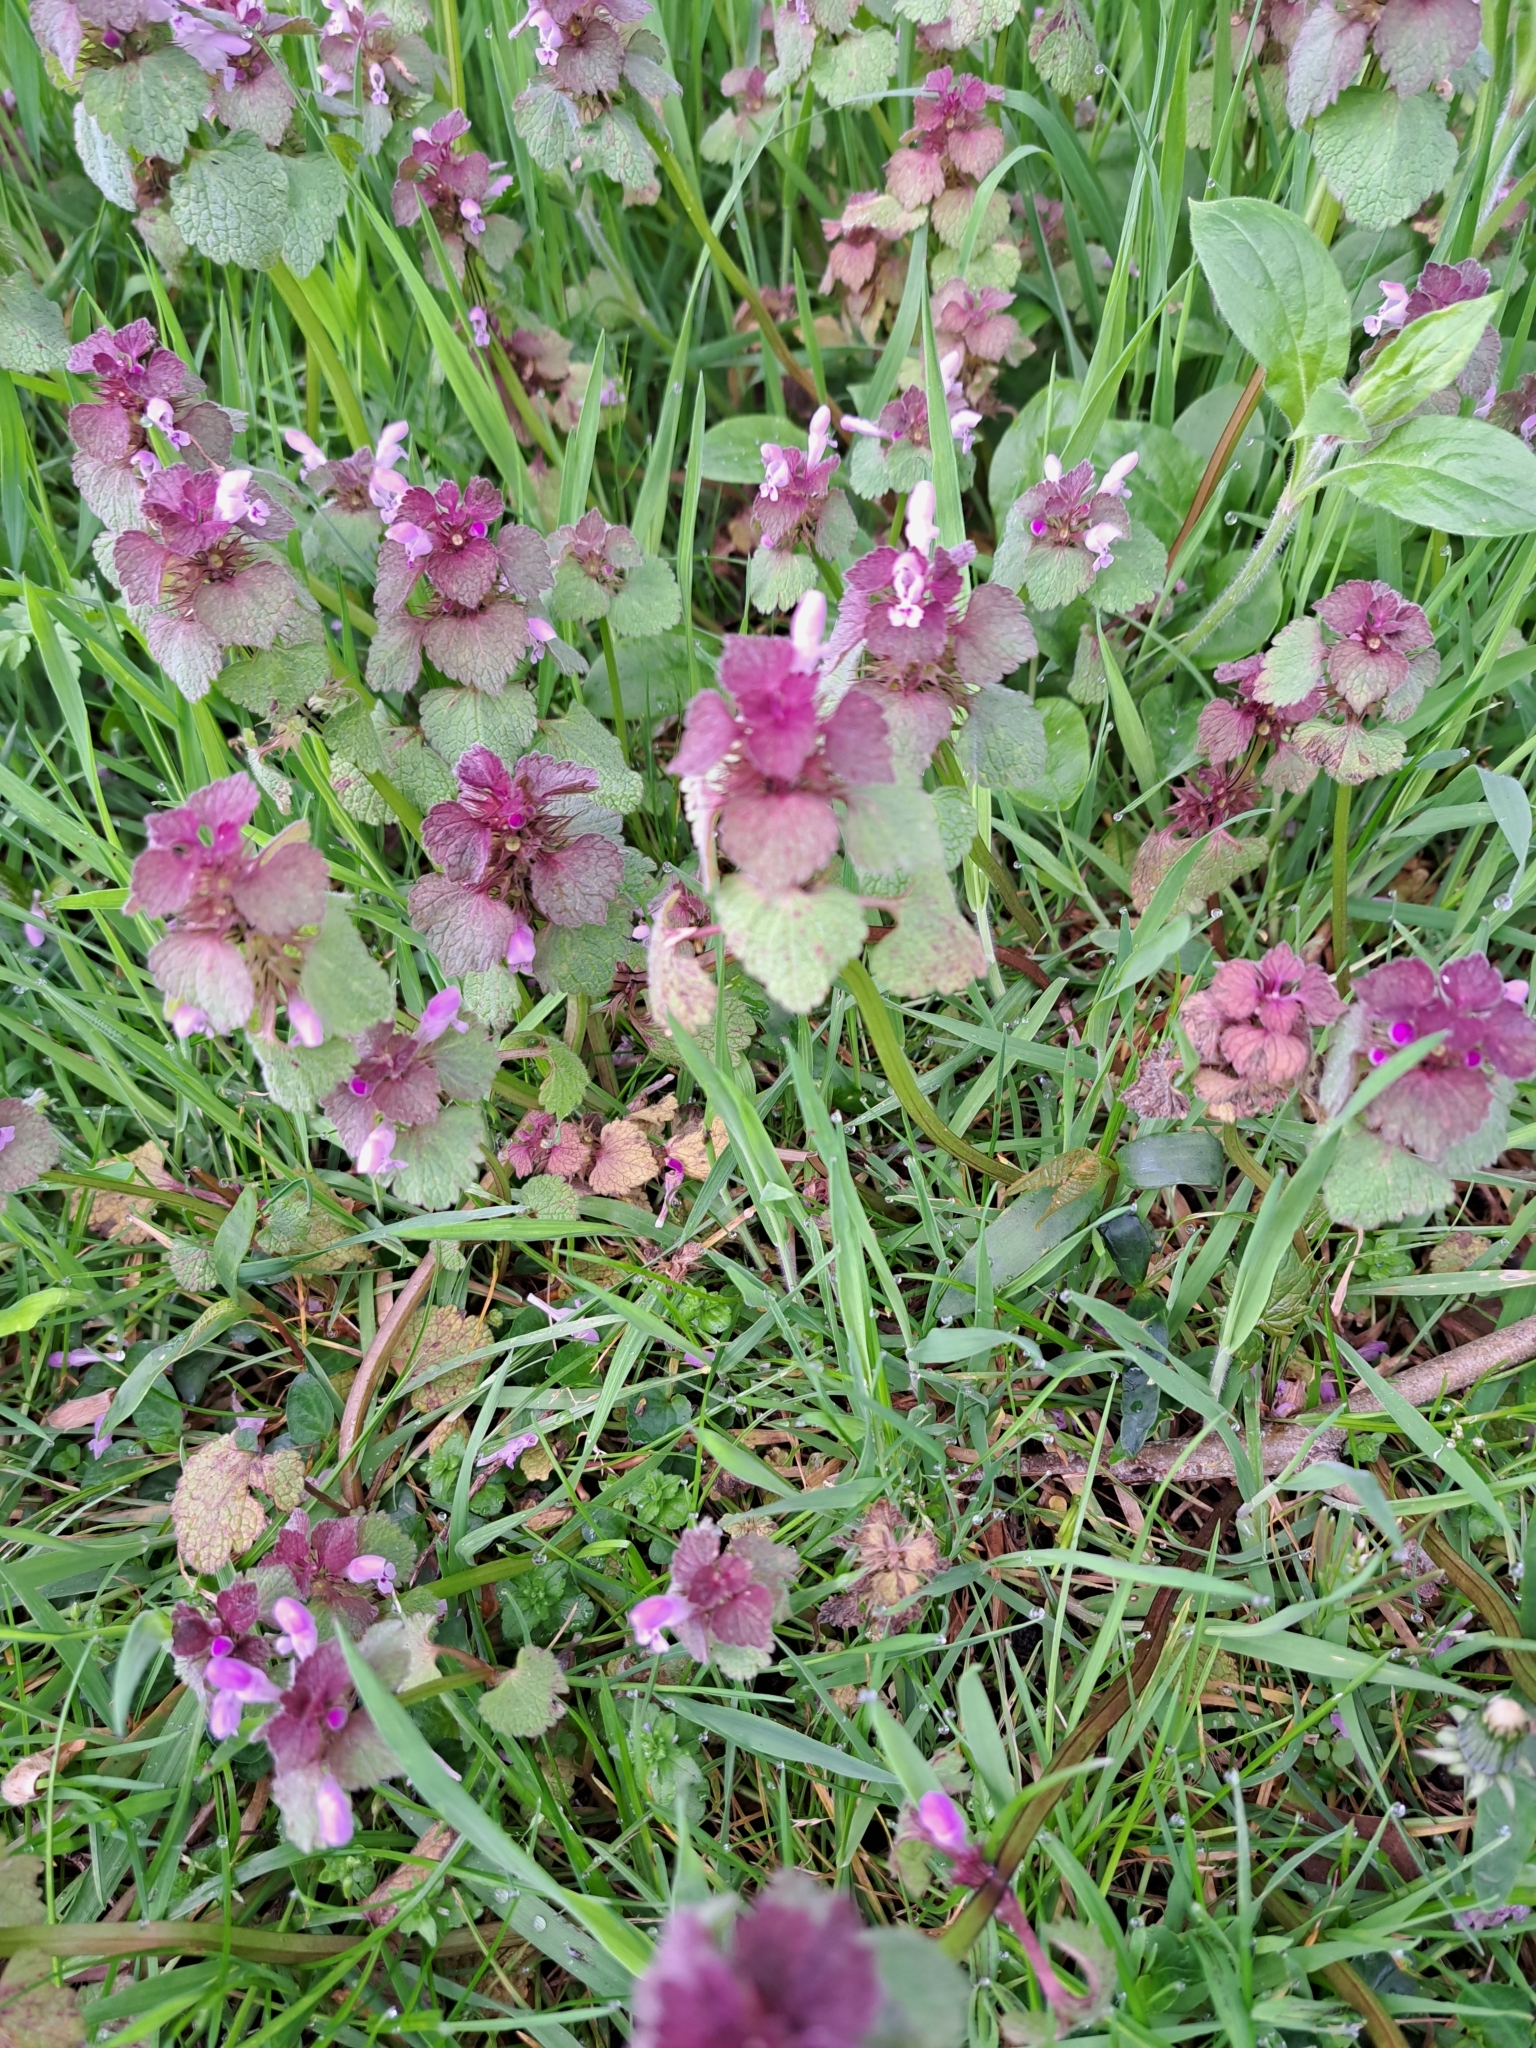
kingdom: Plantae
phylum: Tracheophyta
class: Magnoliopsida
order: Lamiales
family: Lamiaceae
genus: Lamium
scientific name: Lamium purpureum
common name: Red dead-nettle
